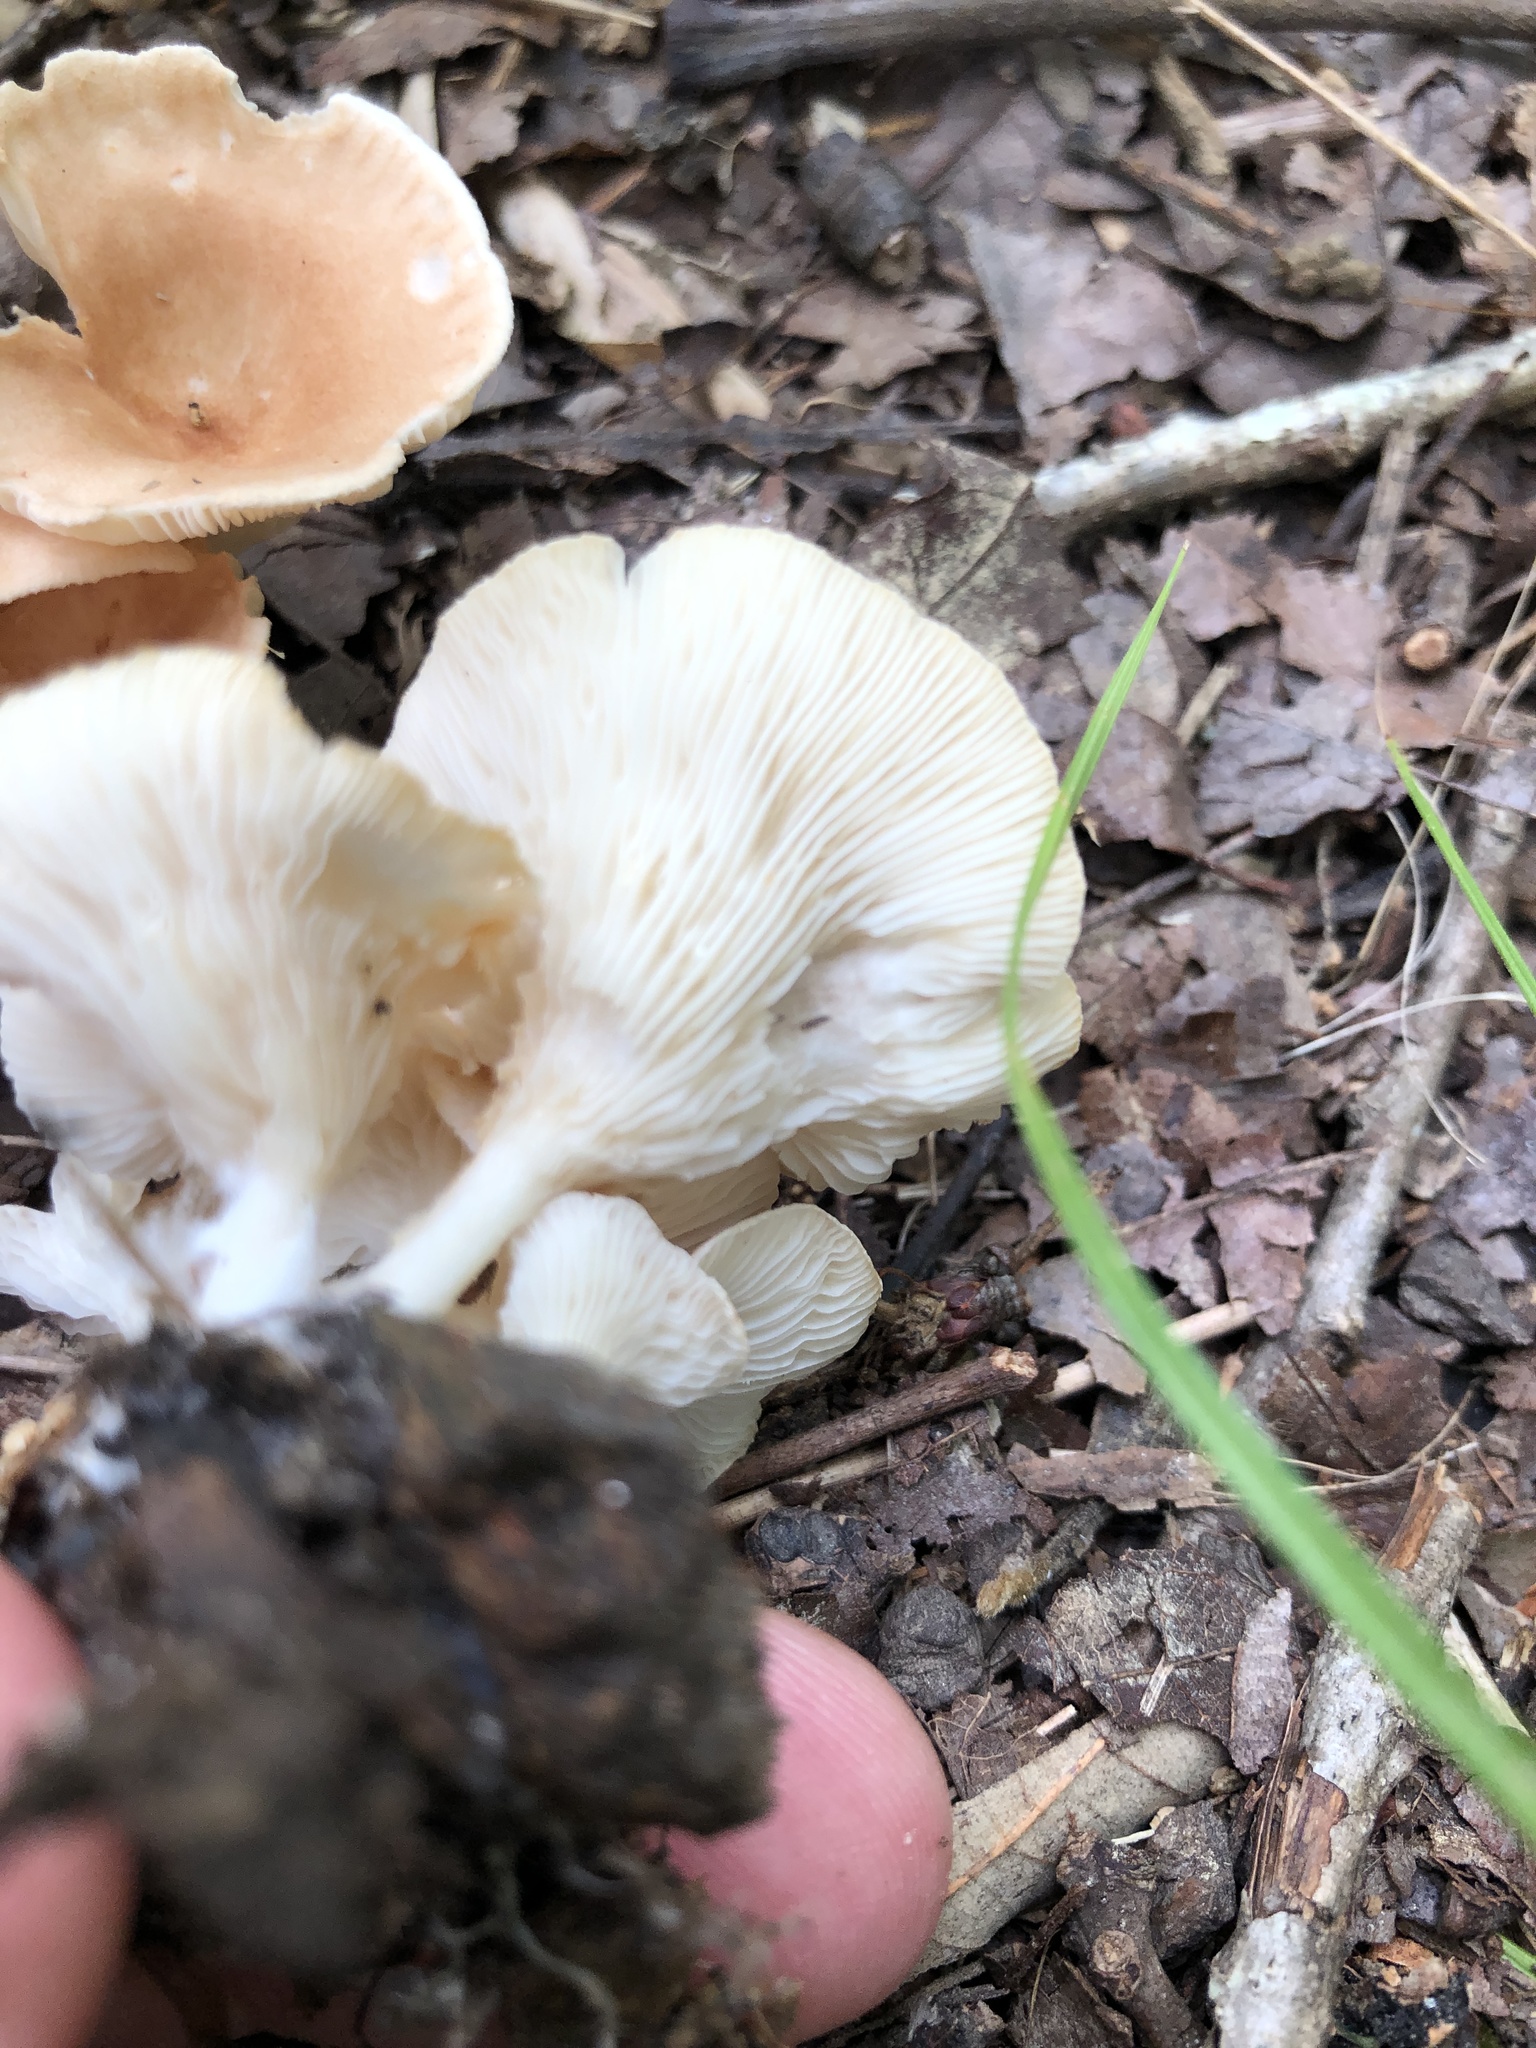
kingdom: Fungi
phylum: Basidiomycota
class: Agaricomycetes
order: Agaricales
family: Tricholomataceae
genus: Infundibulicybe
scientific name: Infundibulicybe gibba
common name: Common funnel
